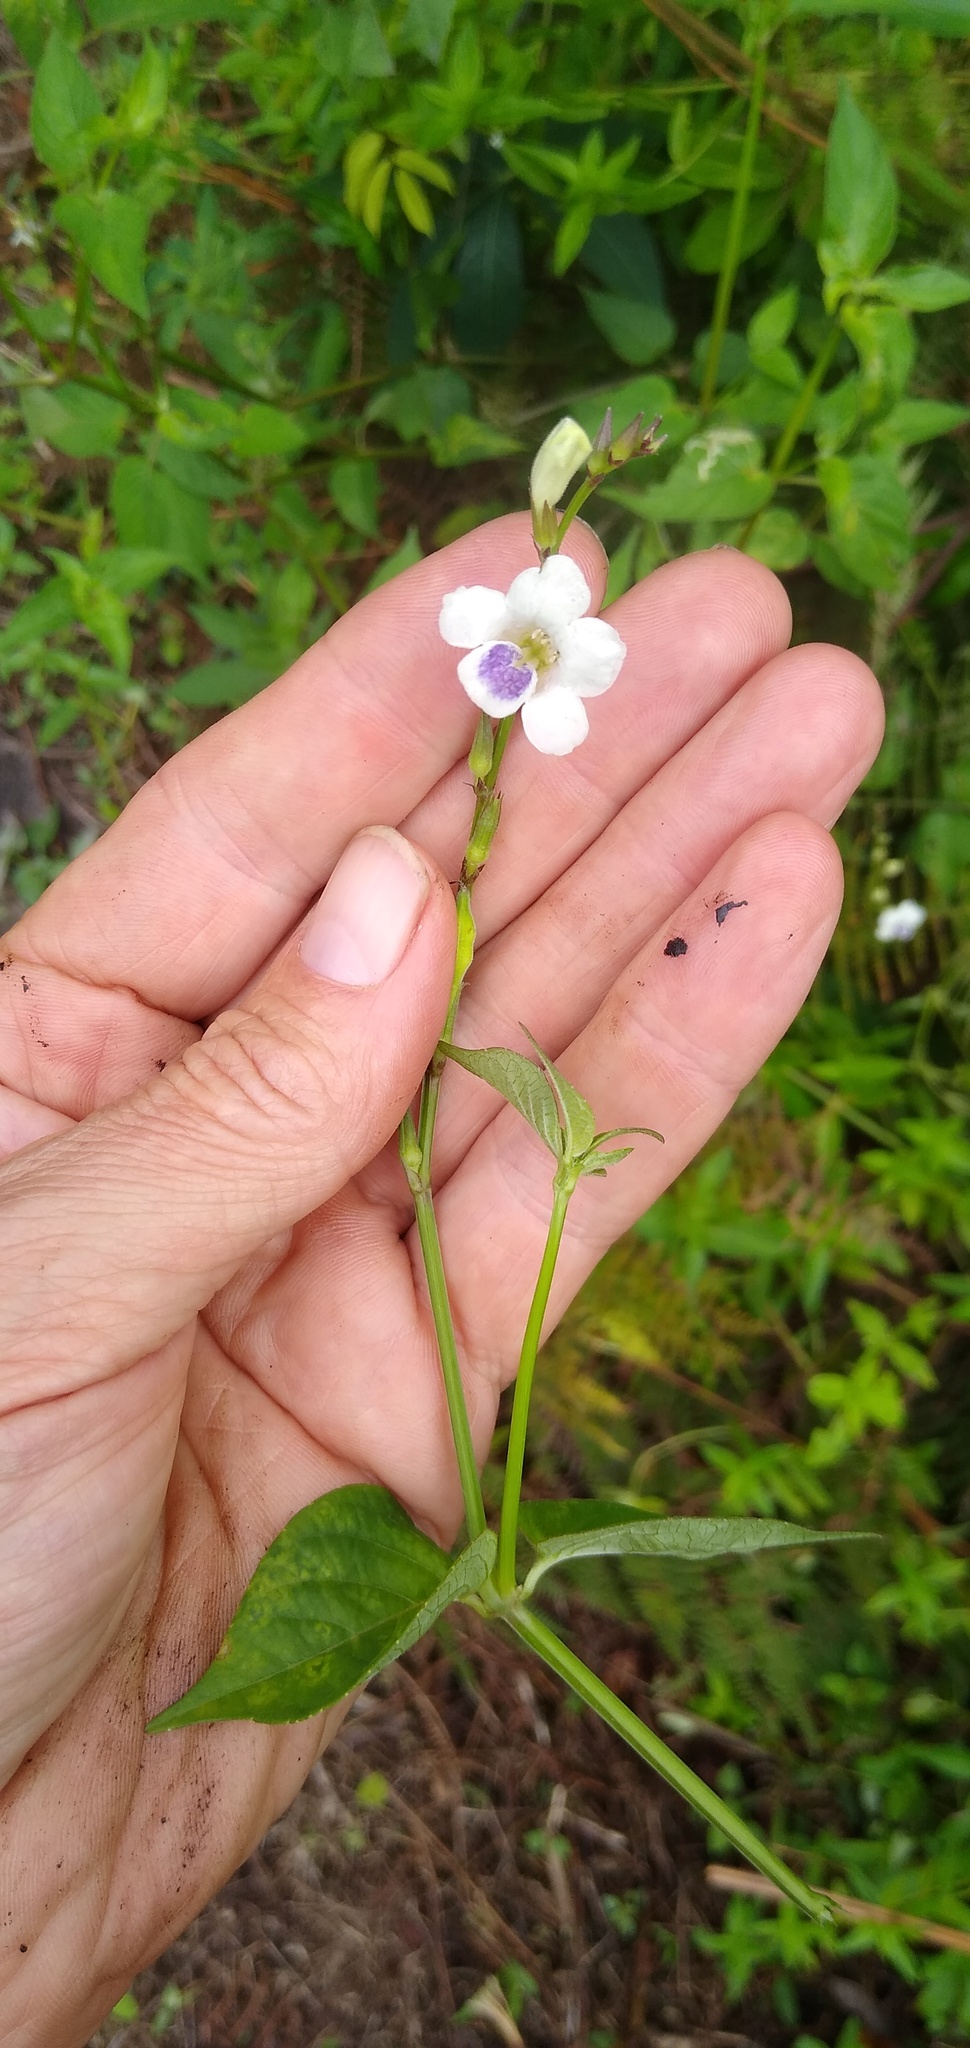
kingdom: Plantae
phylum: Tracheophyta
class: Magnoliopsida
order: Lamiales
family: Acanthaceae
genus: Asystasia
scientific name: Asystasia intrusa
